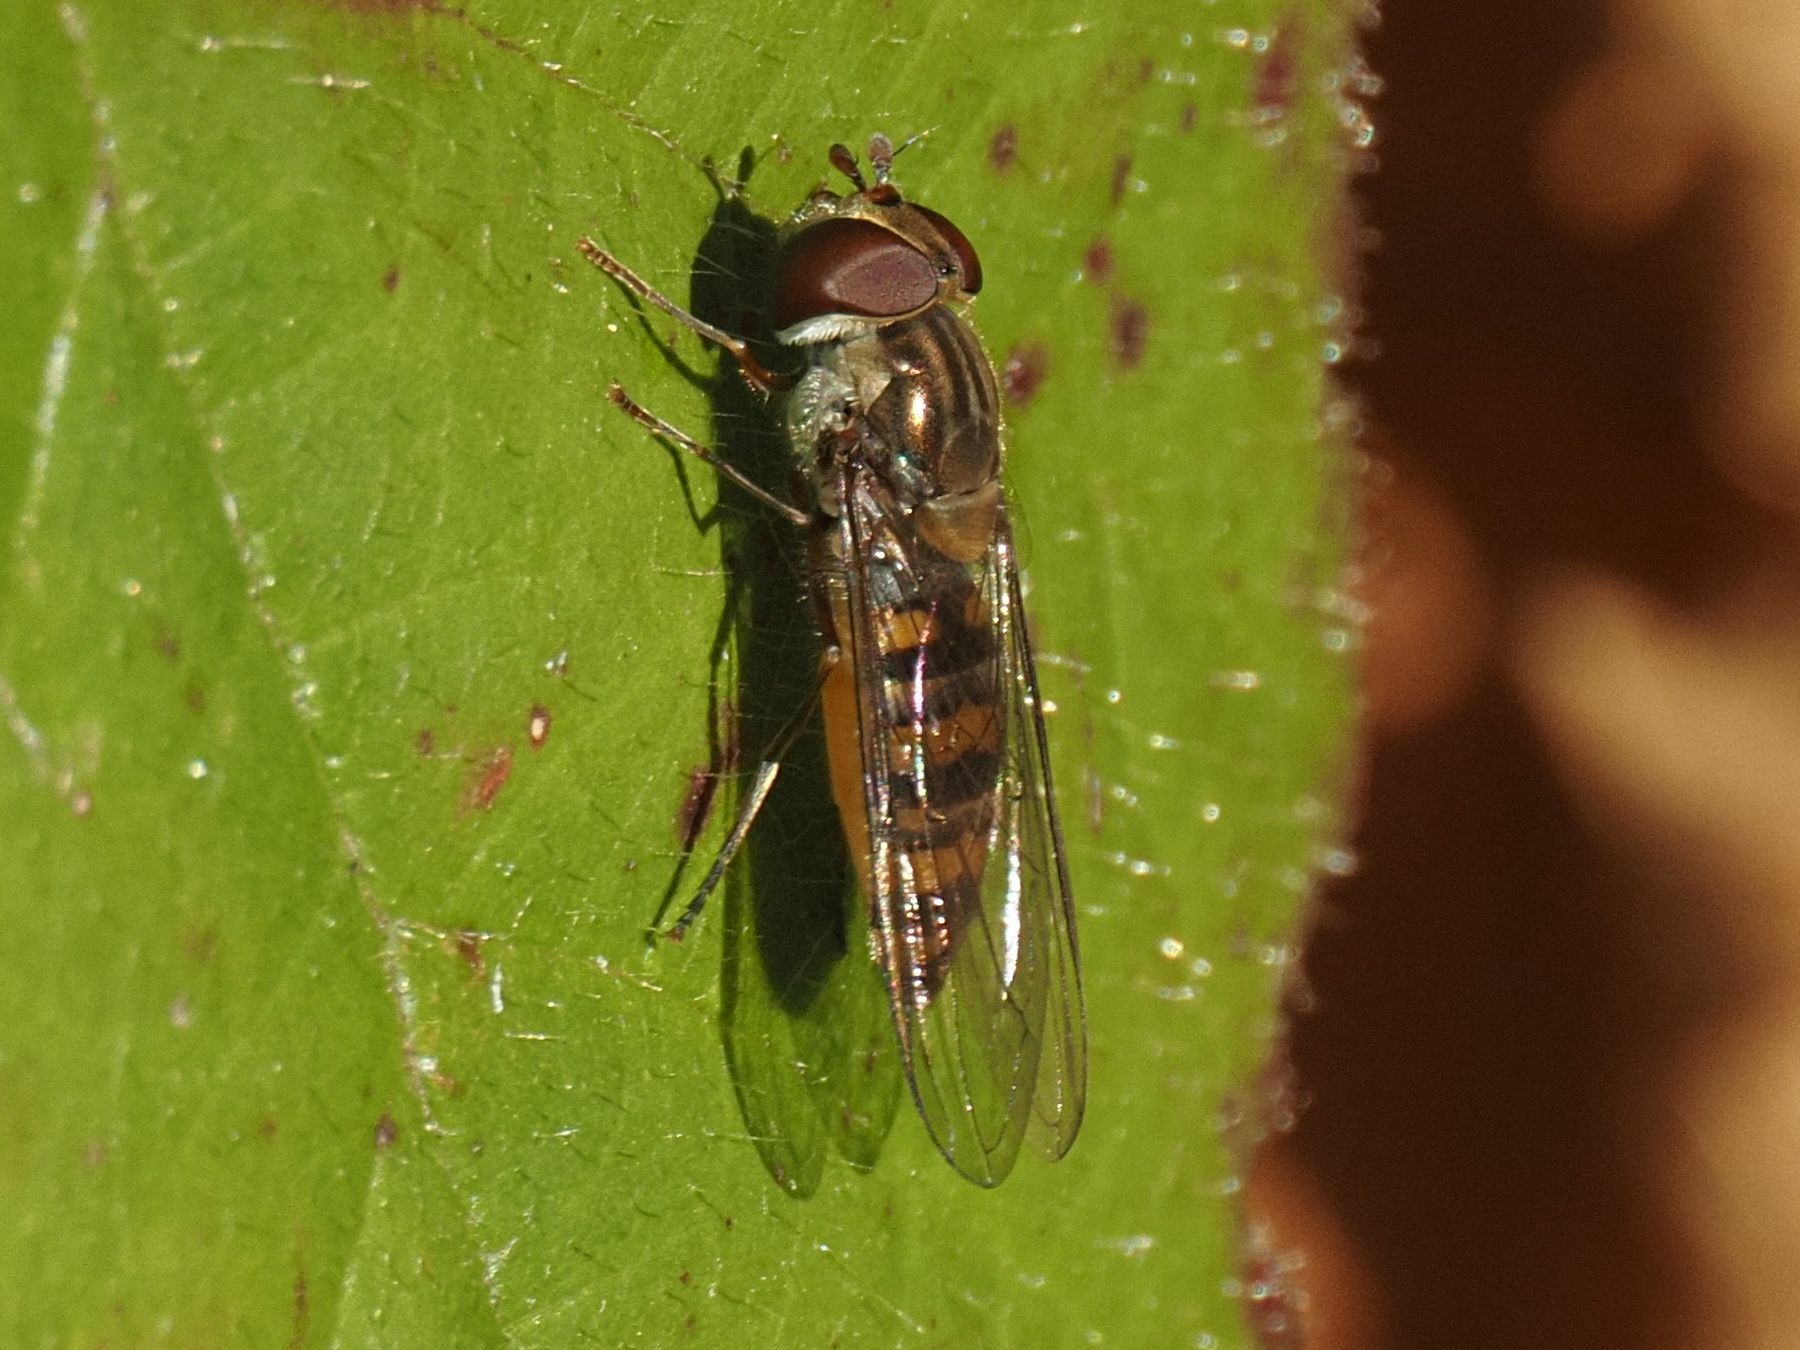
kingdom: Animalia
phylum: Arthropoda
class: Insecta
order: Diptera
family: Syrphidae
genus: Episyrphus
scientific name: Episyrphus balteatus
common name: Marmalade hoverfly
